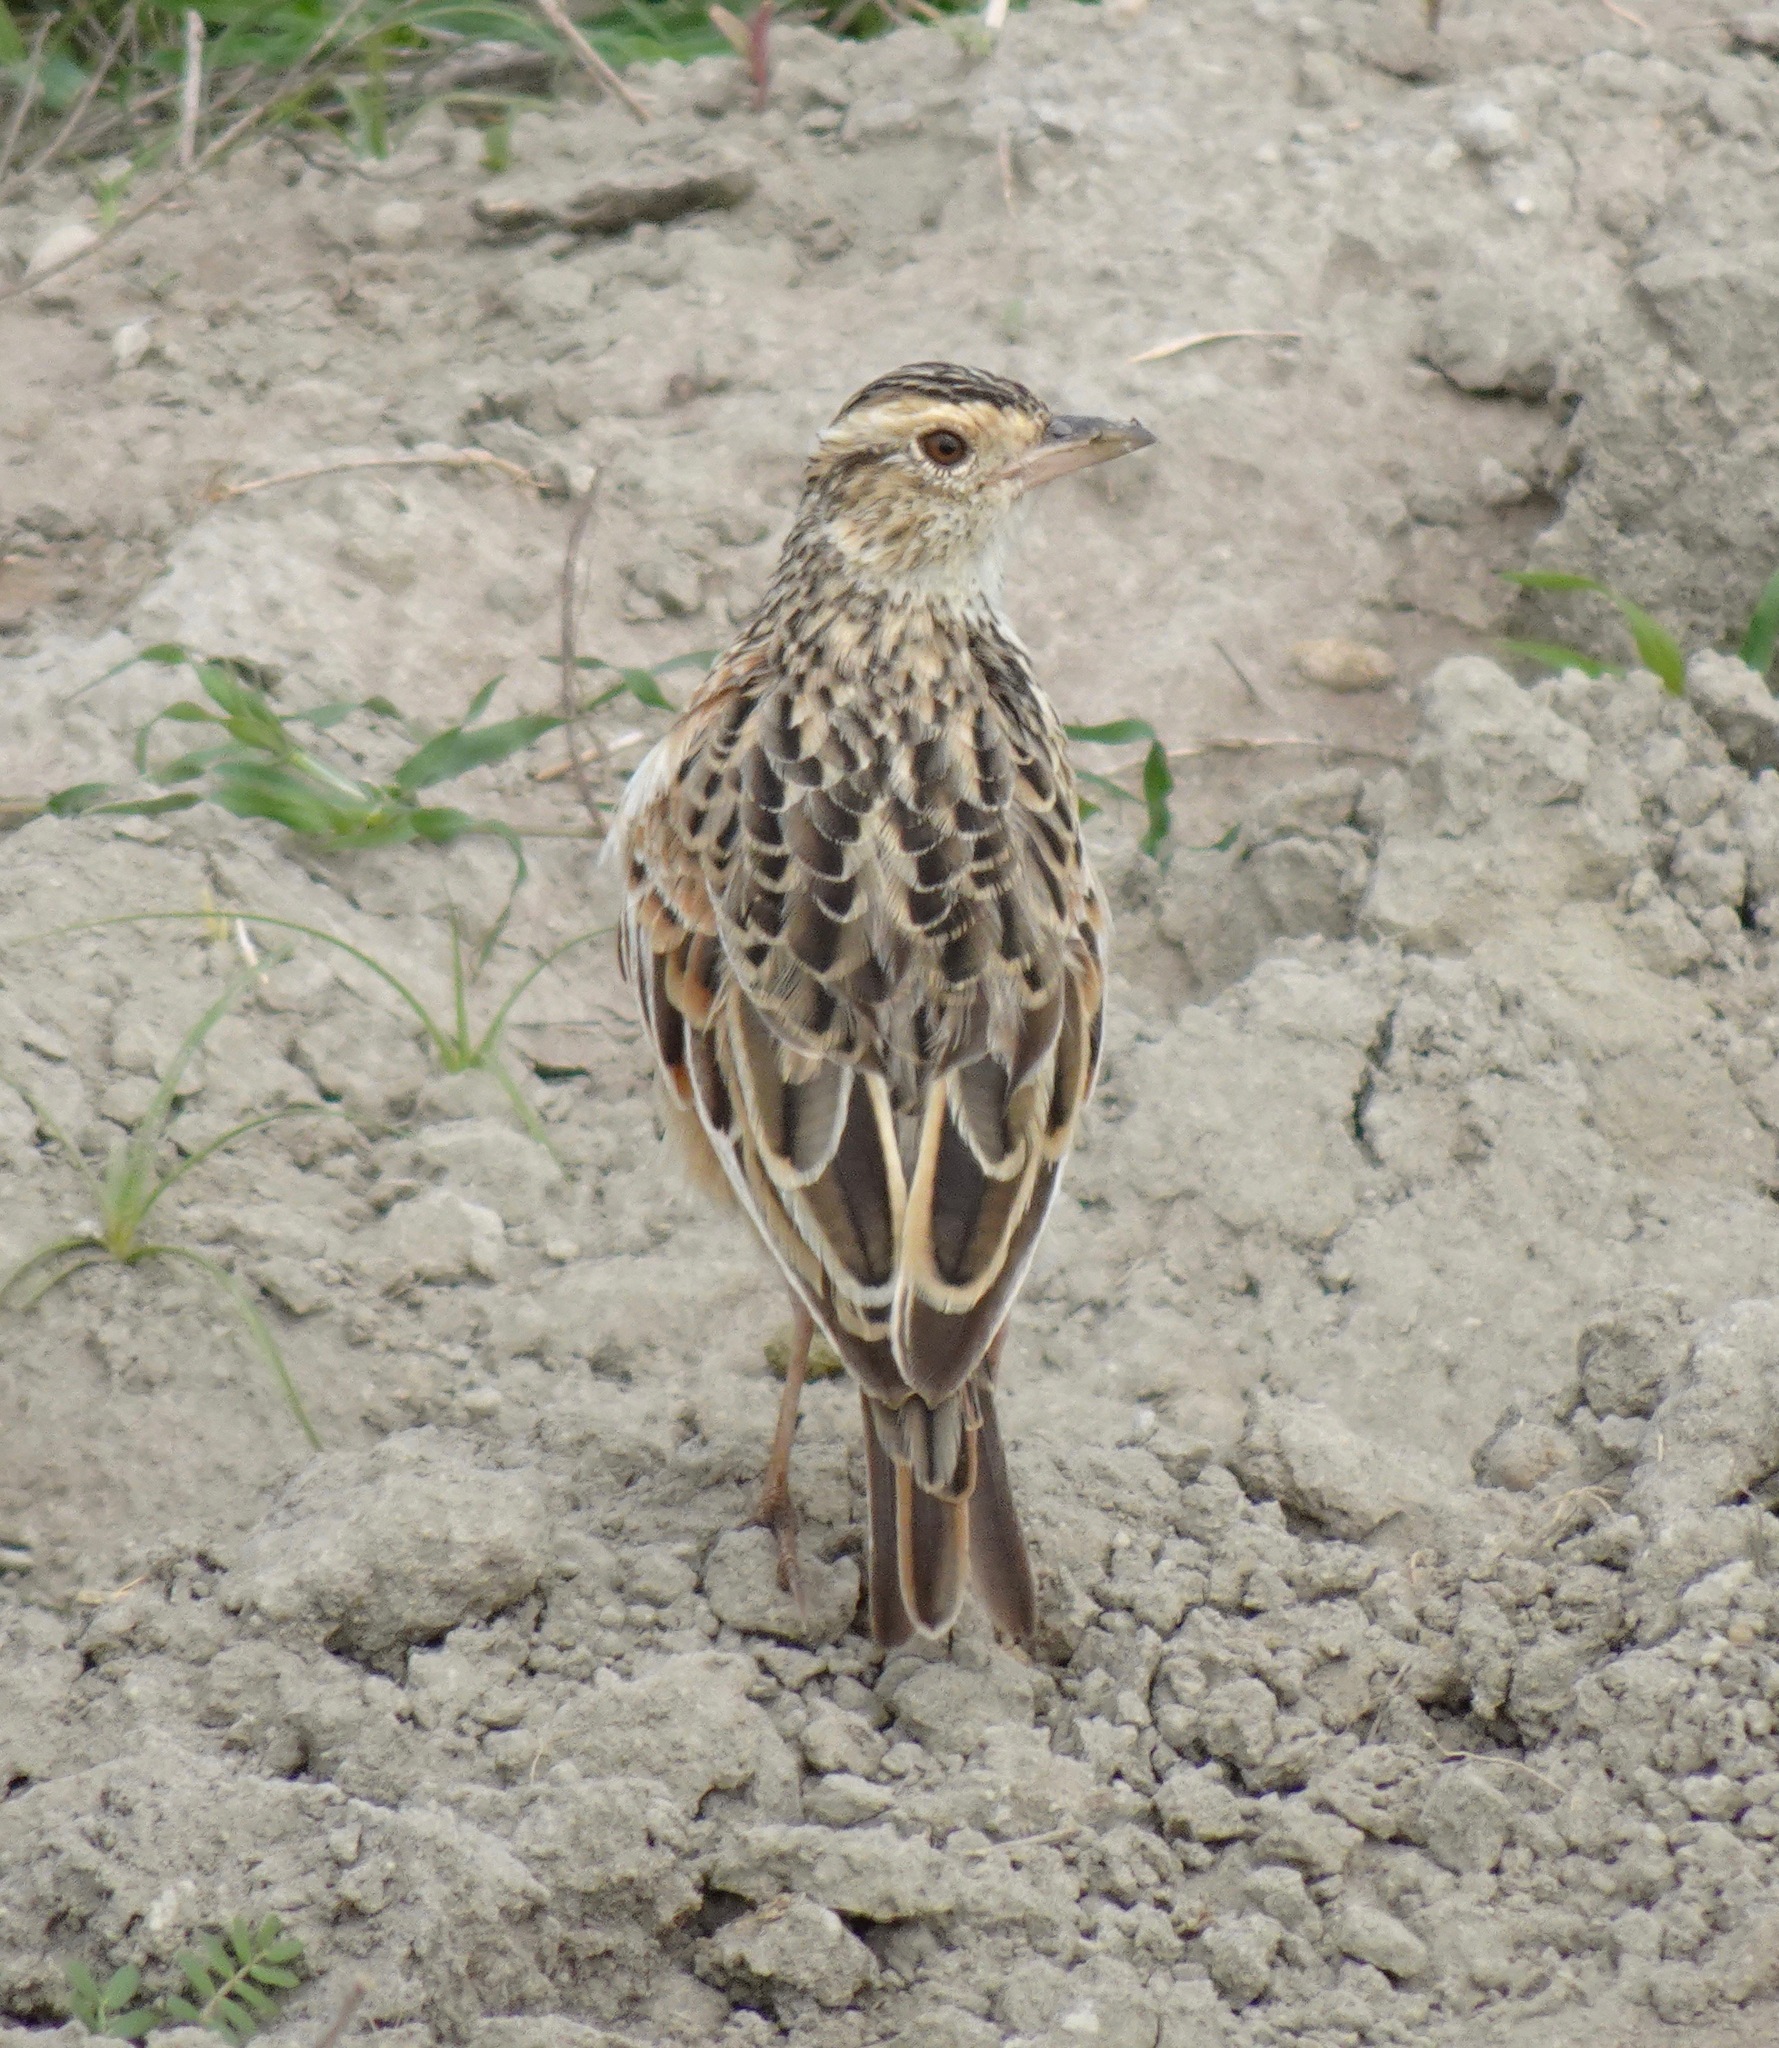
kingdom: Animalia
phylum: Chordata
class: Aves
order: Passeriformes
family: Alaudidae
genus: Mirafra
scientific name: Mirafra africana
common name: Rufous-naped lark
